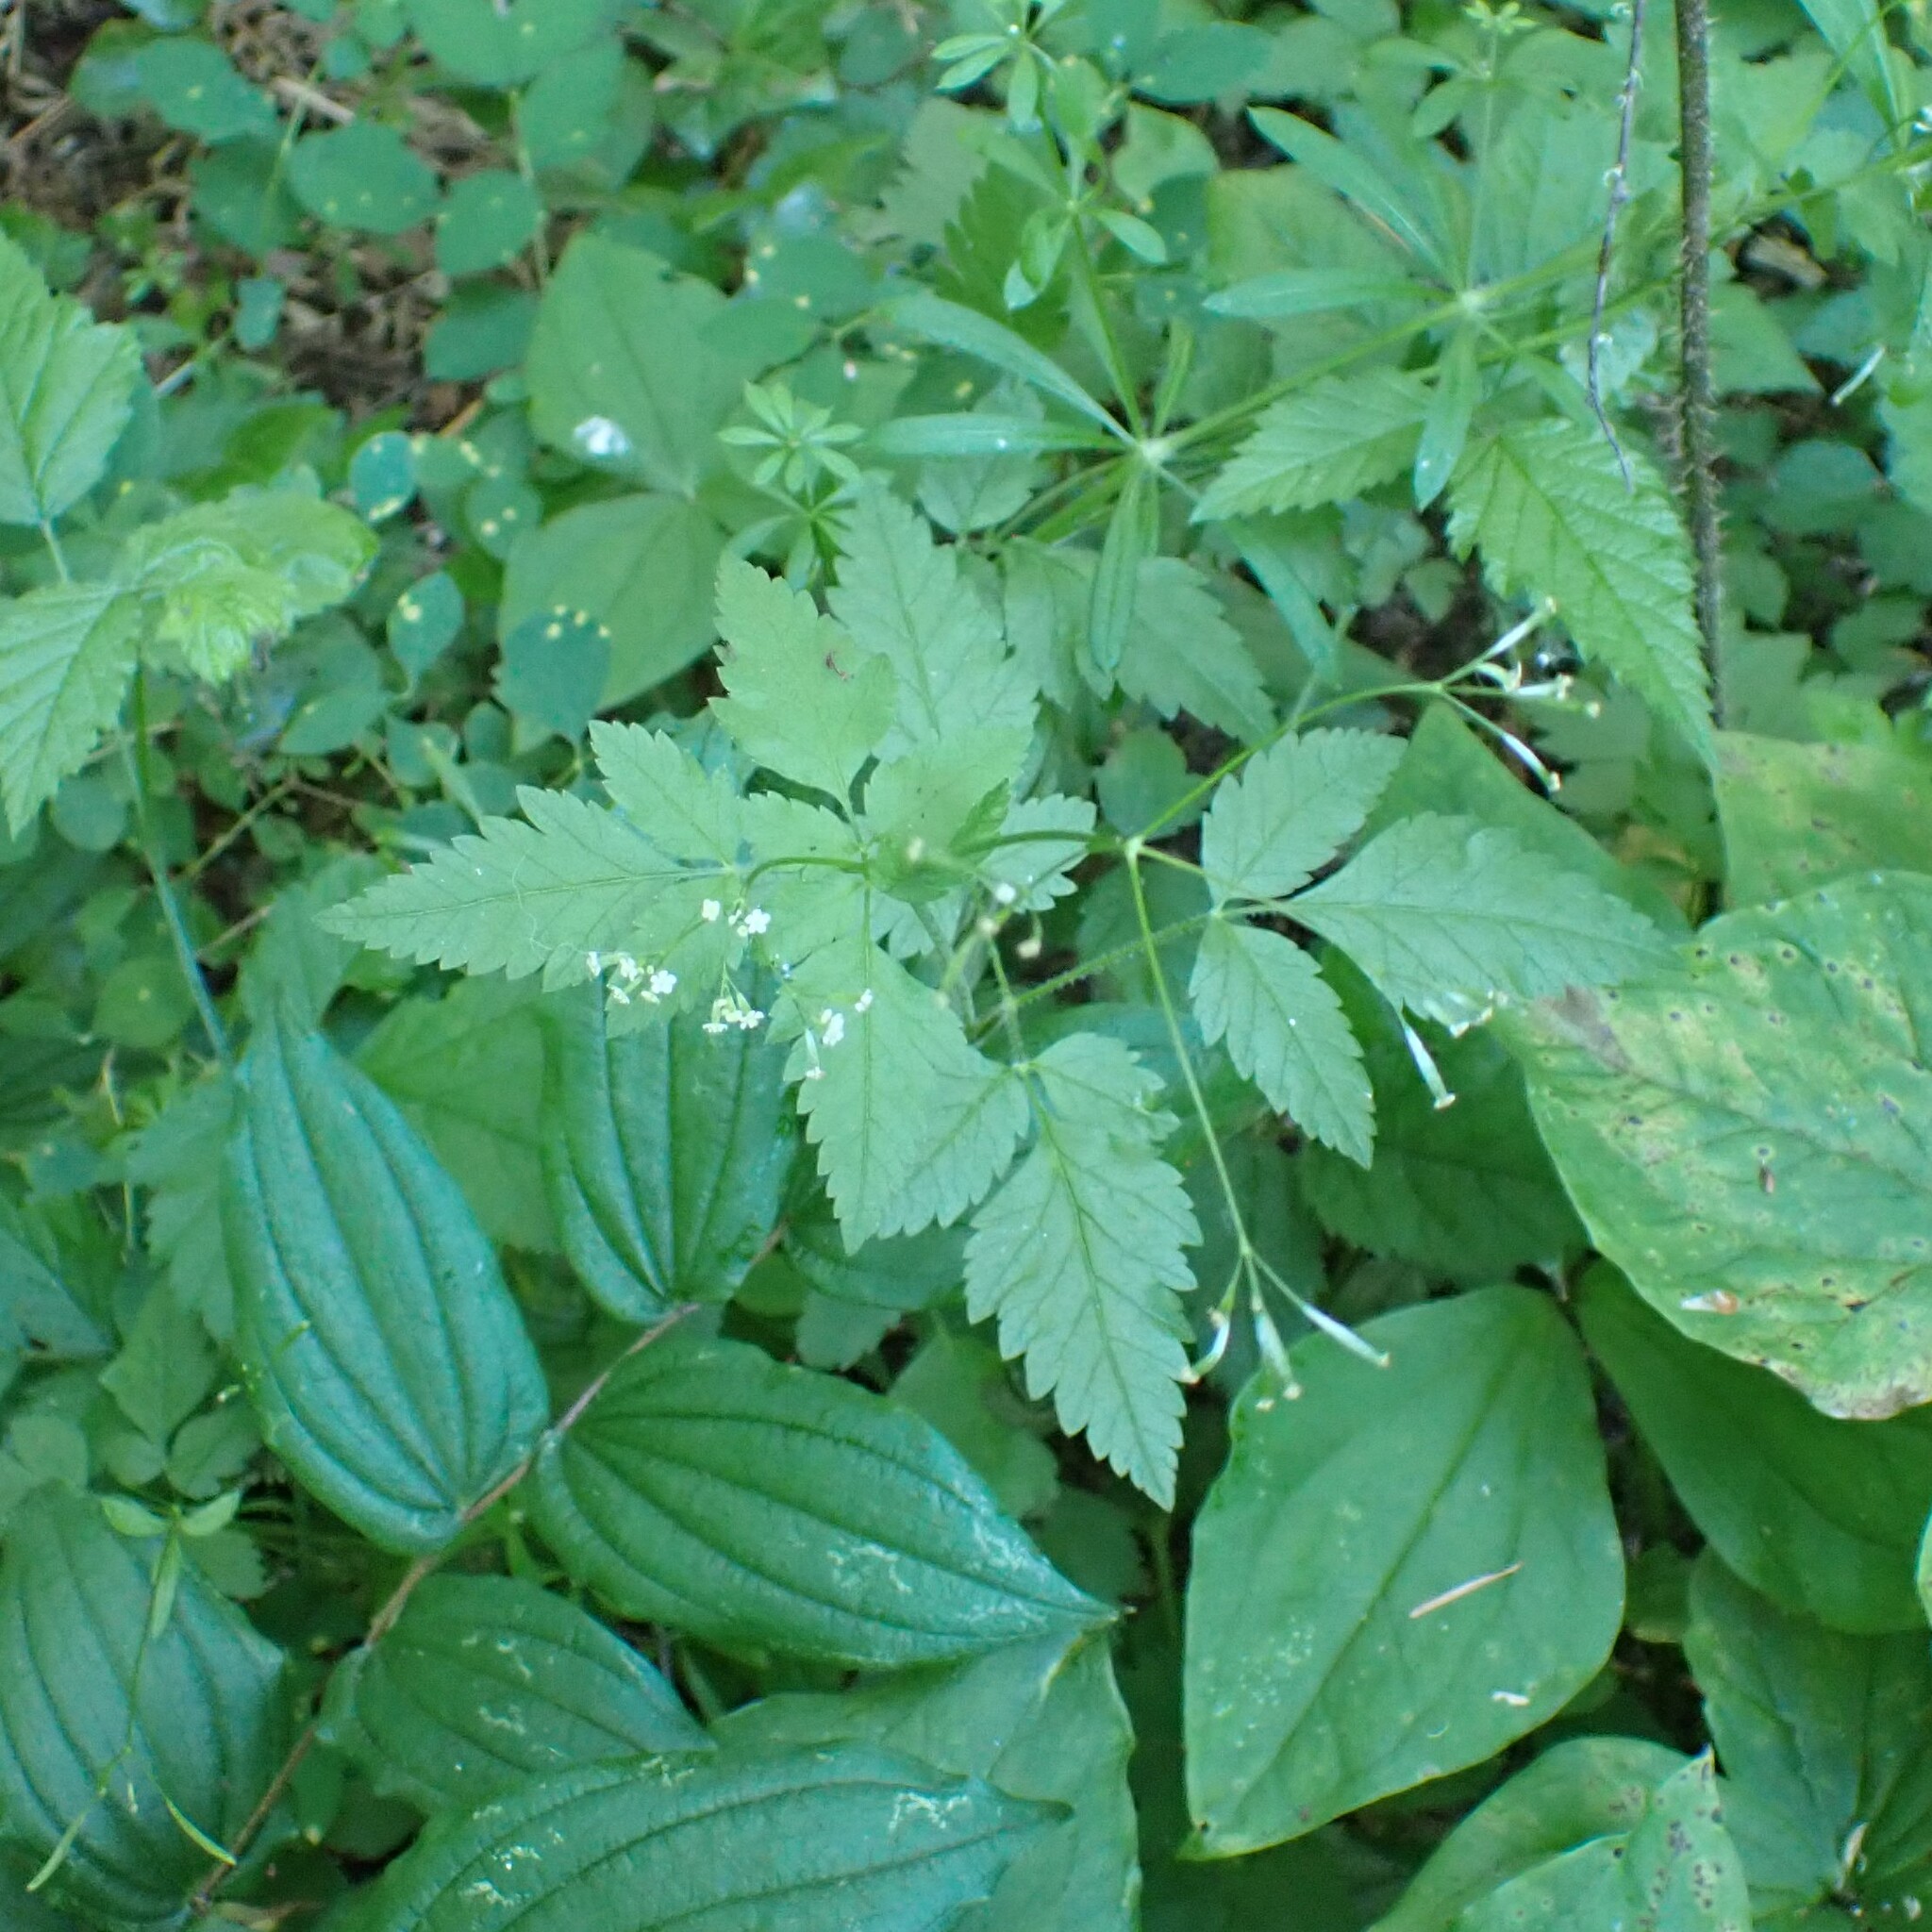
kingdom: Plantae
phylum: Tracheophyta
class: Magnoliopsida
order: Apiales
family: Apiaceae
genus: Osmorhiza
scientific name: Osmorhiza berteroi
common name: Mountain sweet cicely
